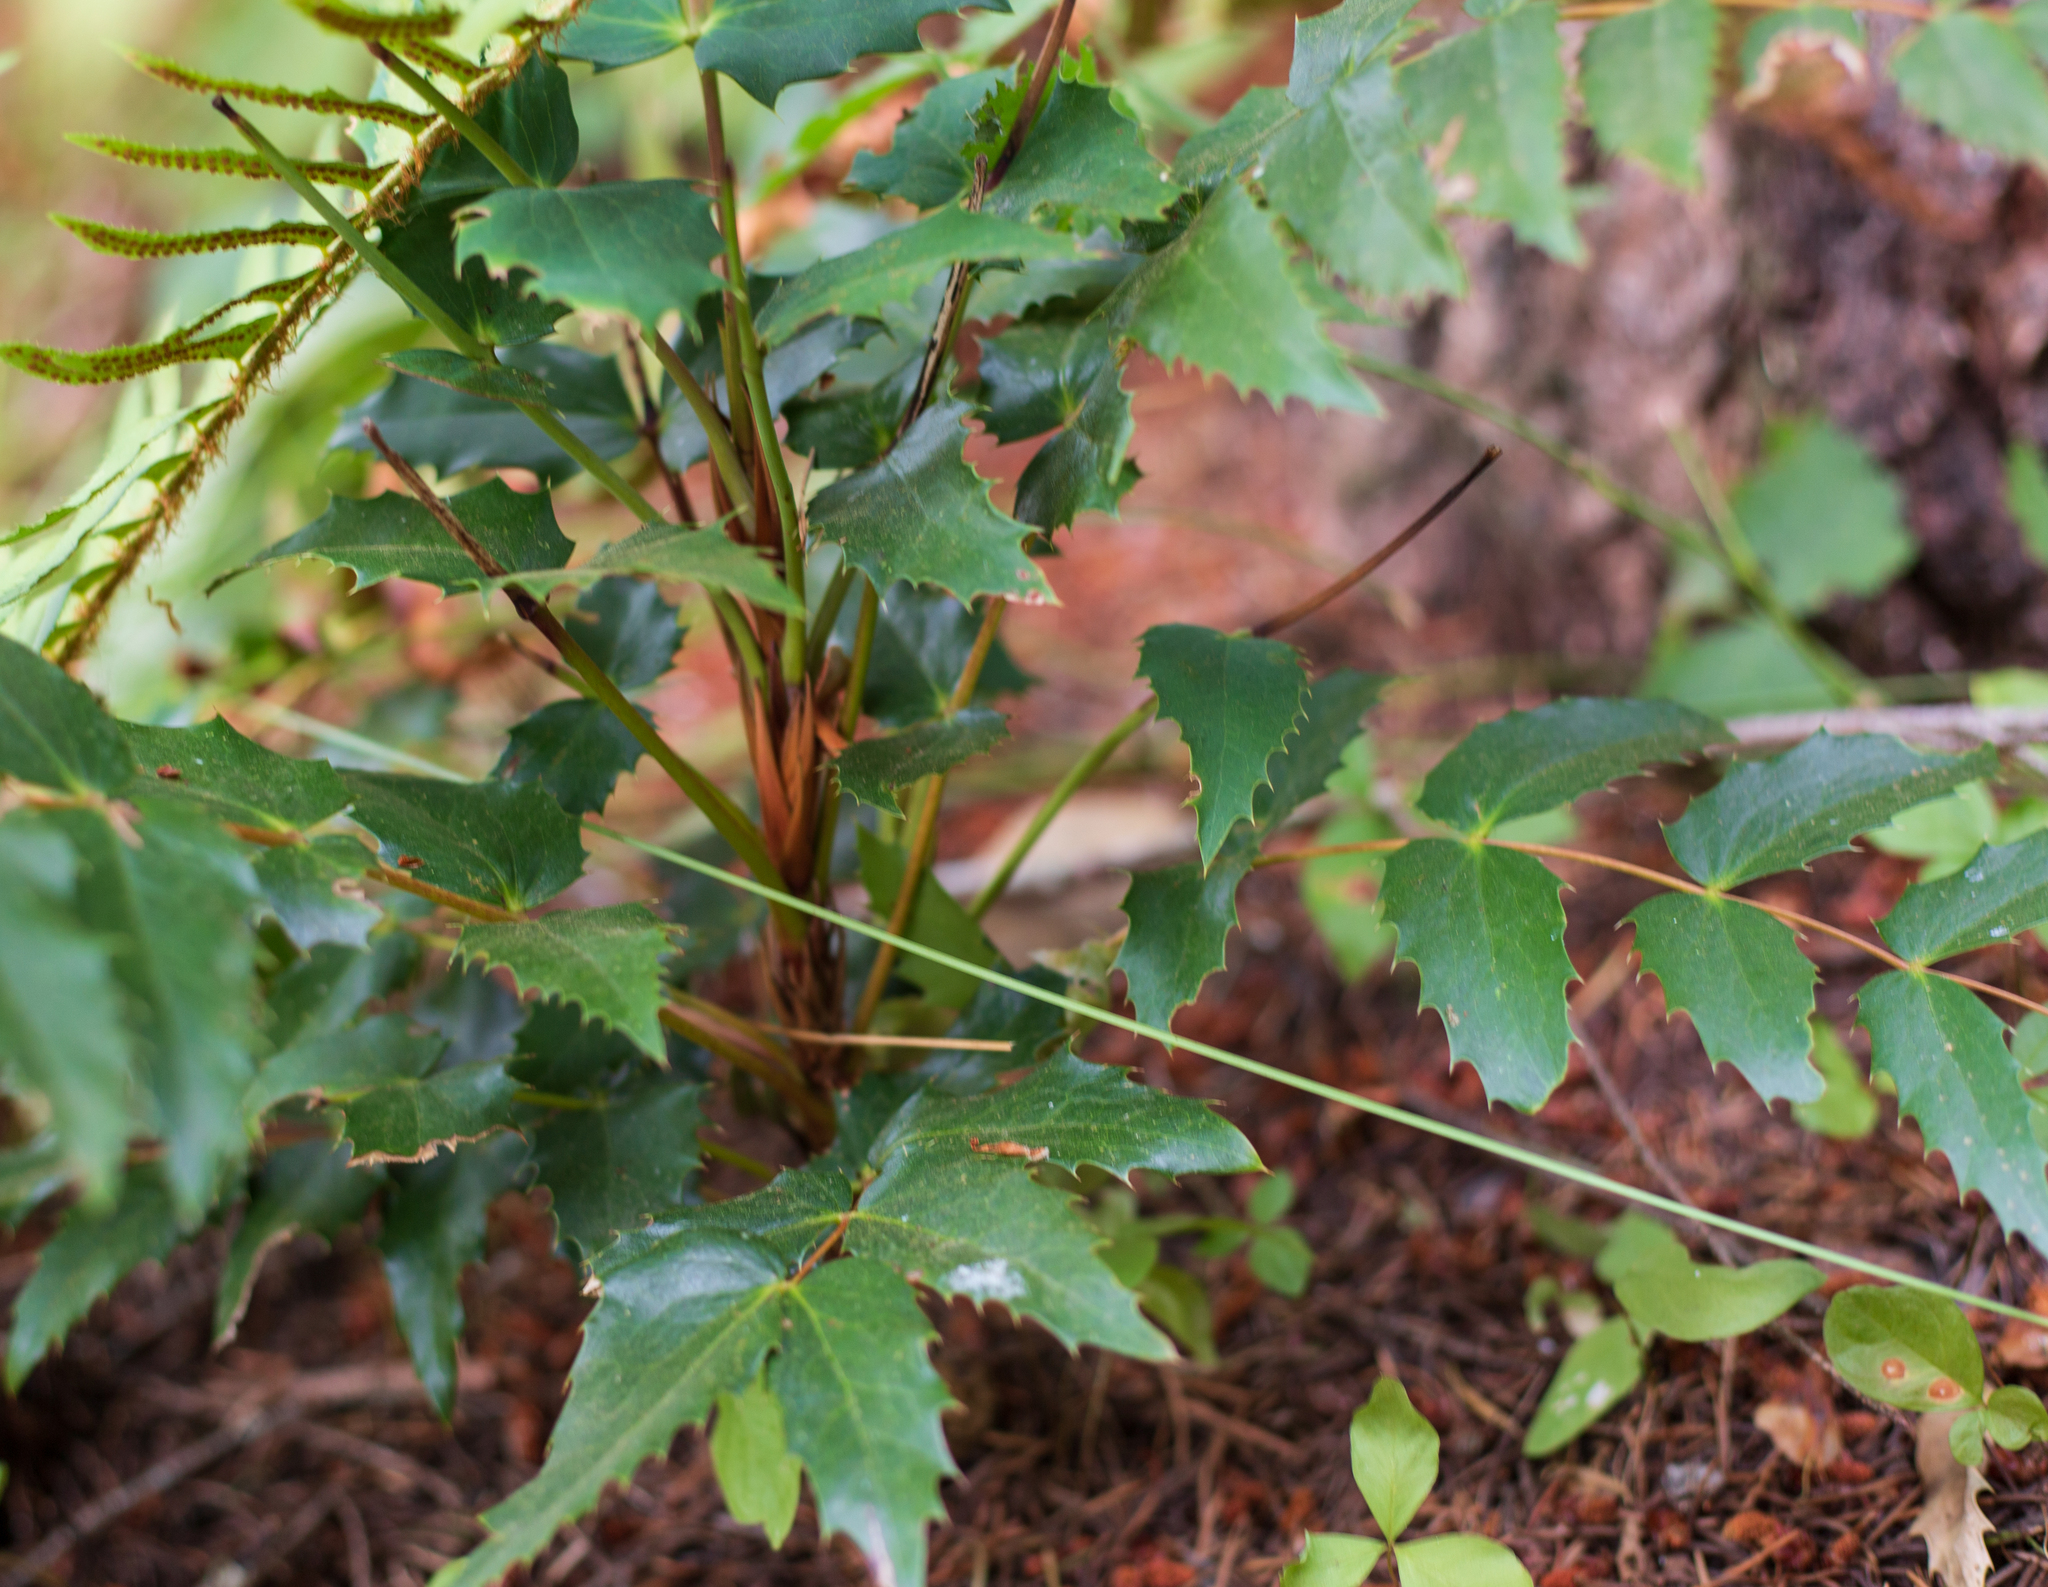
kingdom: Plantae
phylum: Tracheophyta
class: Magnoliopsida
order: Ranunculales
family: Berberidaceae
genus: Mahonia
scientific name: Mahonia nervosa
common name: Cascade oregon-grape
